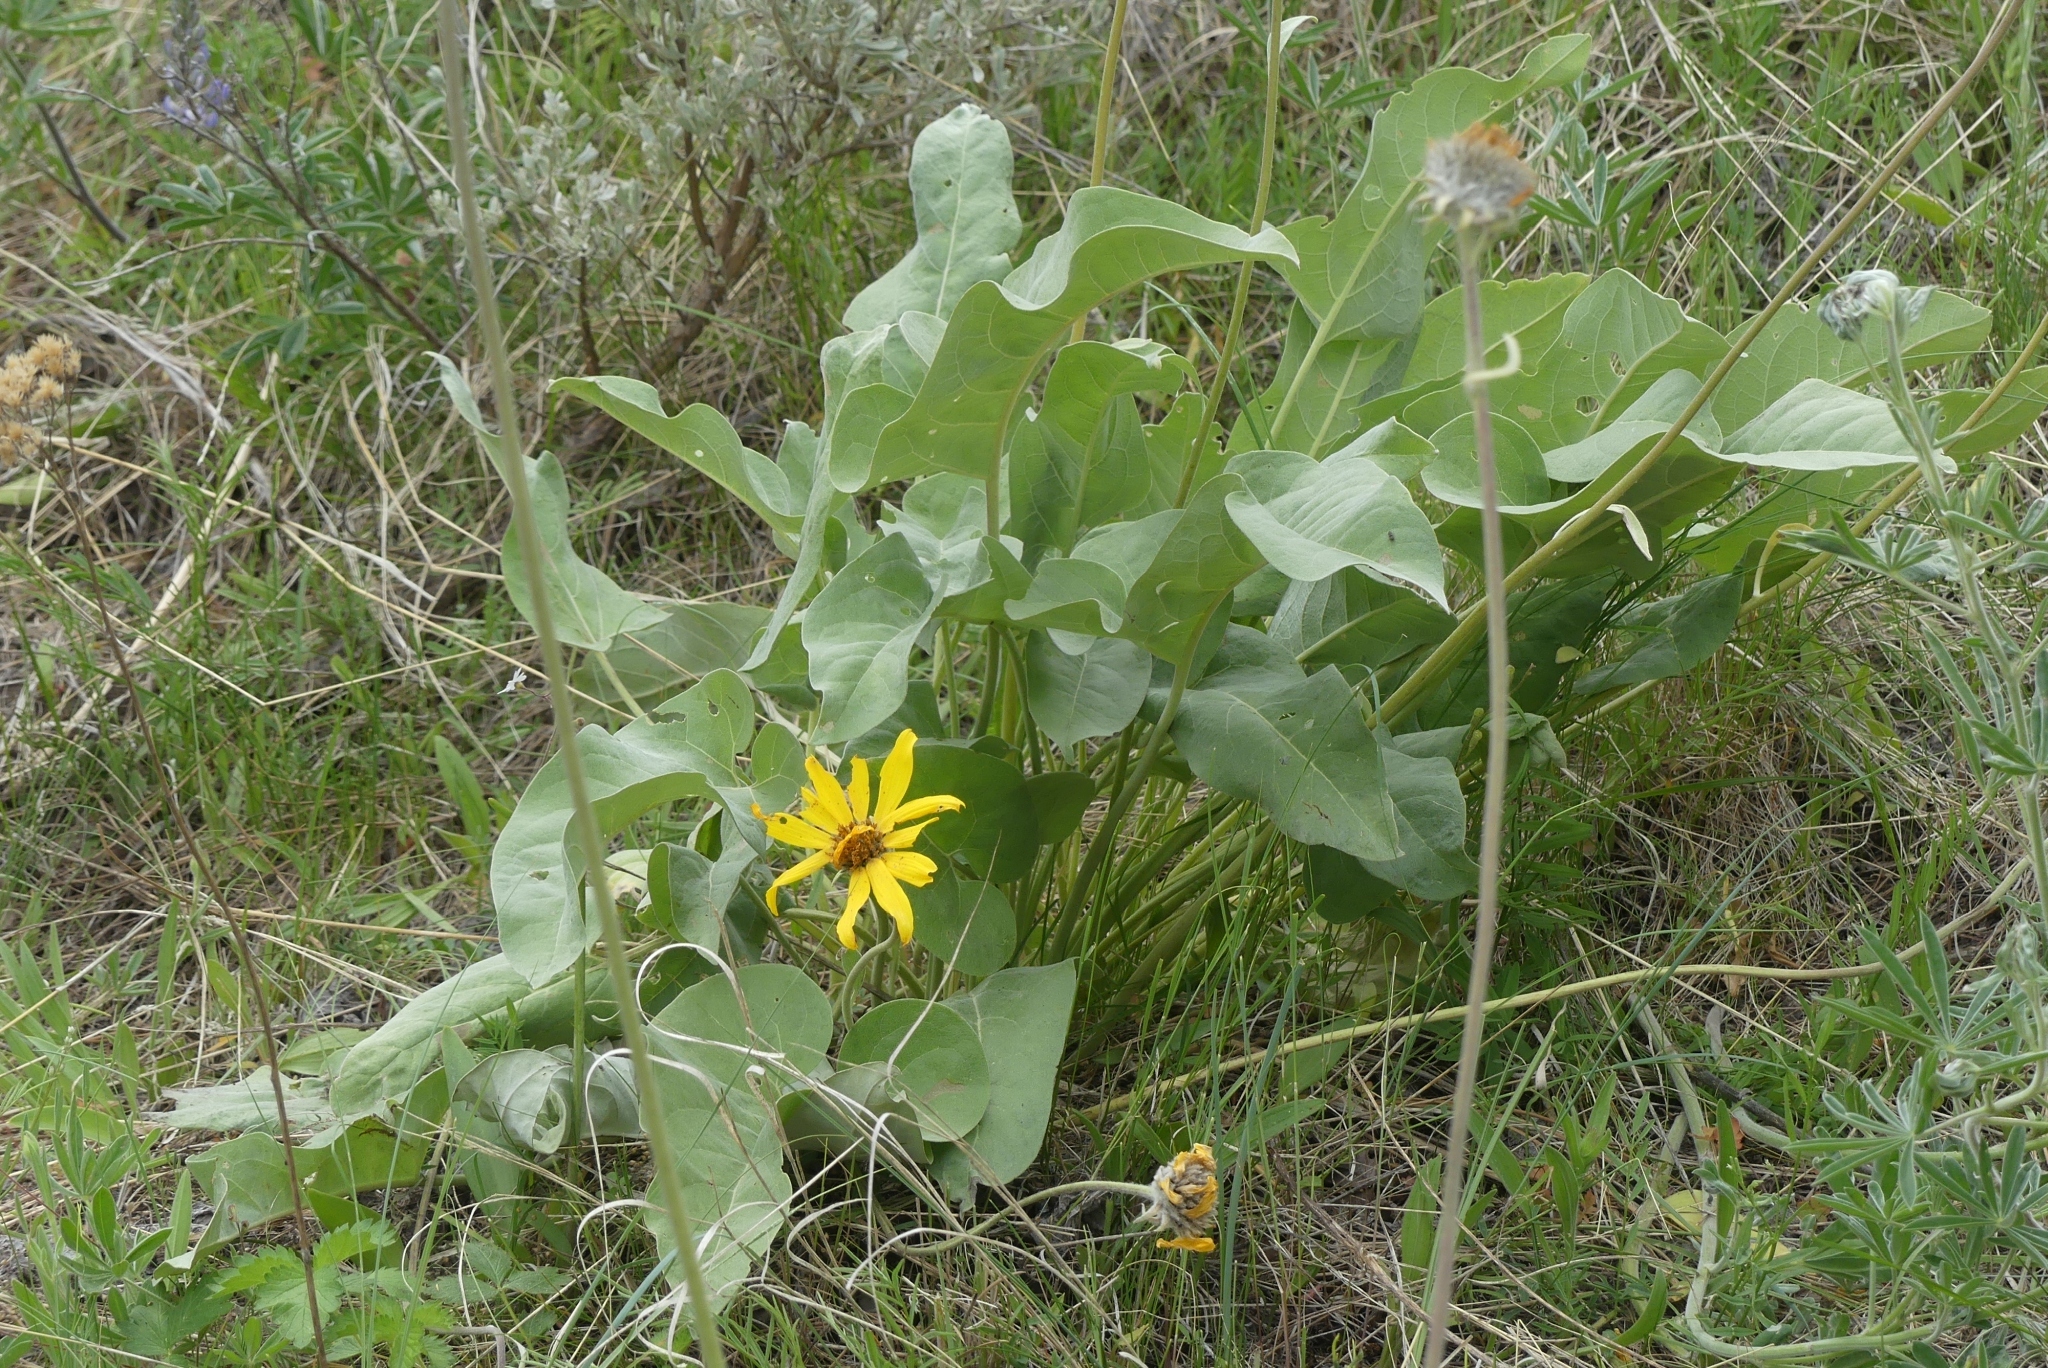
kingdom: Plantae
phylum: Tracheophyta
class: Magnoliopsida
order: Asterales
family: Asteraceae
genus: Wyethia
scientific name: Wyethia sagittata
